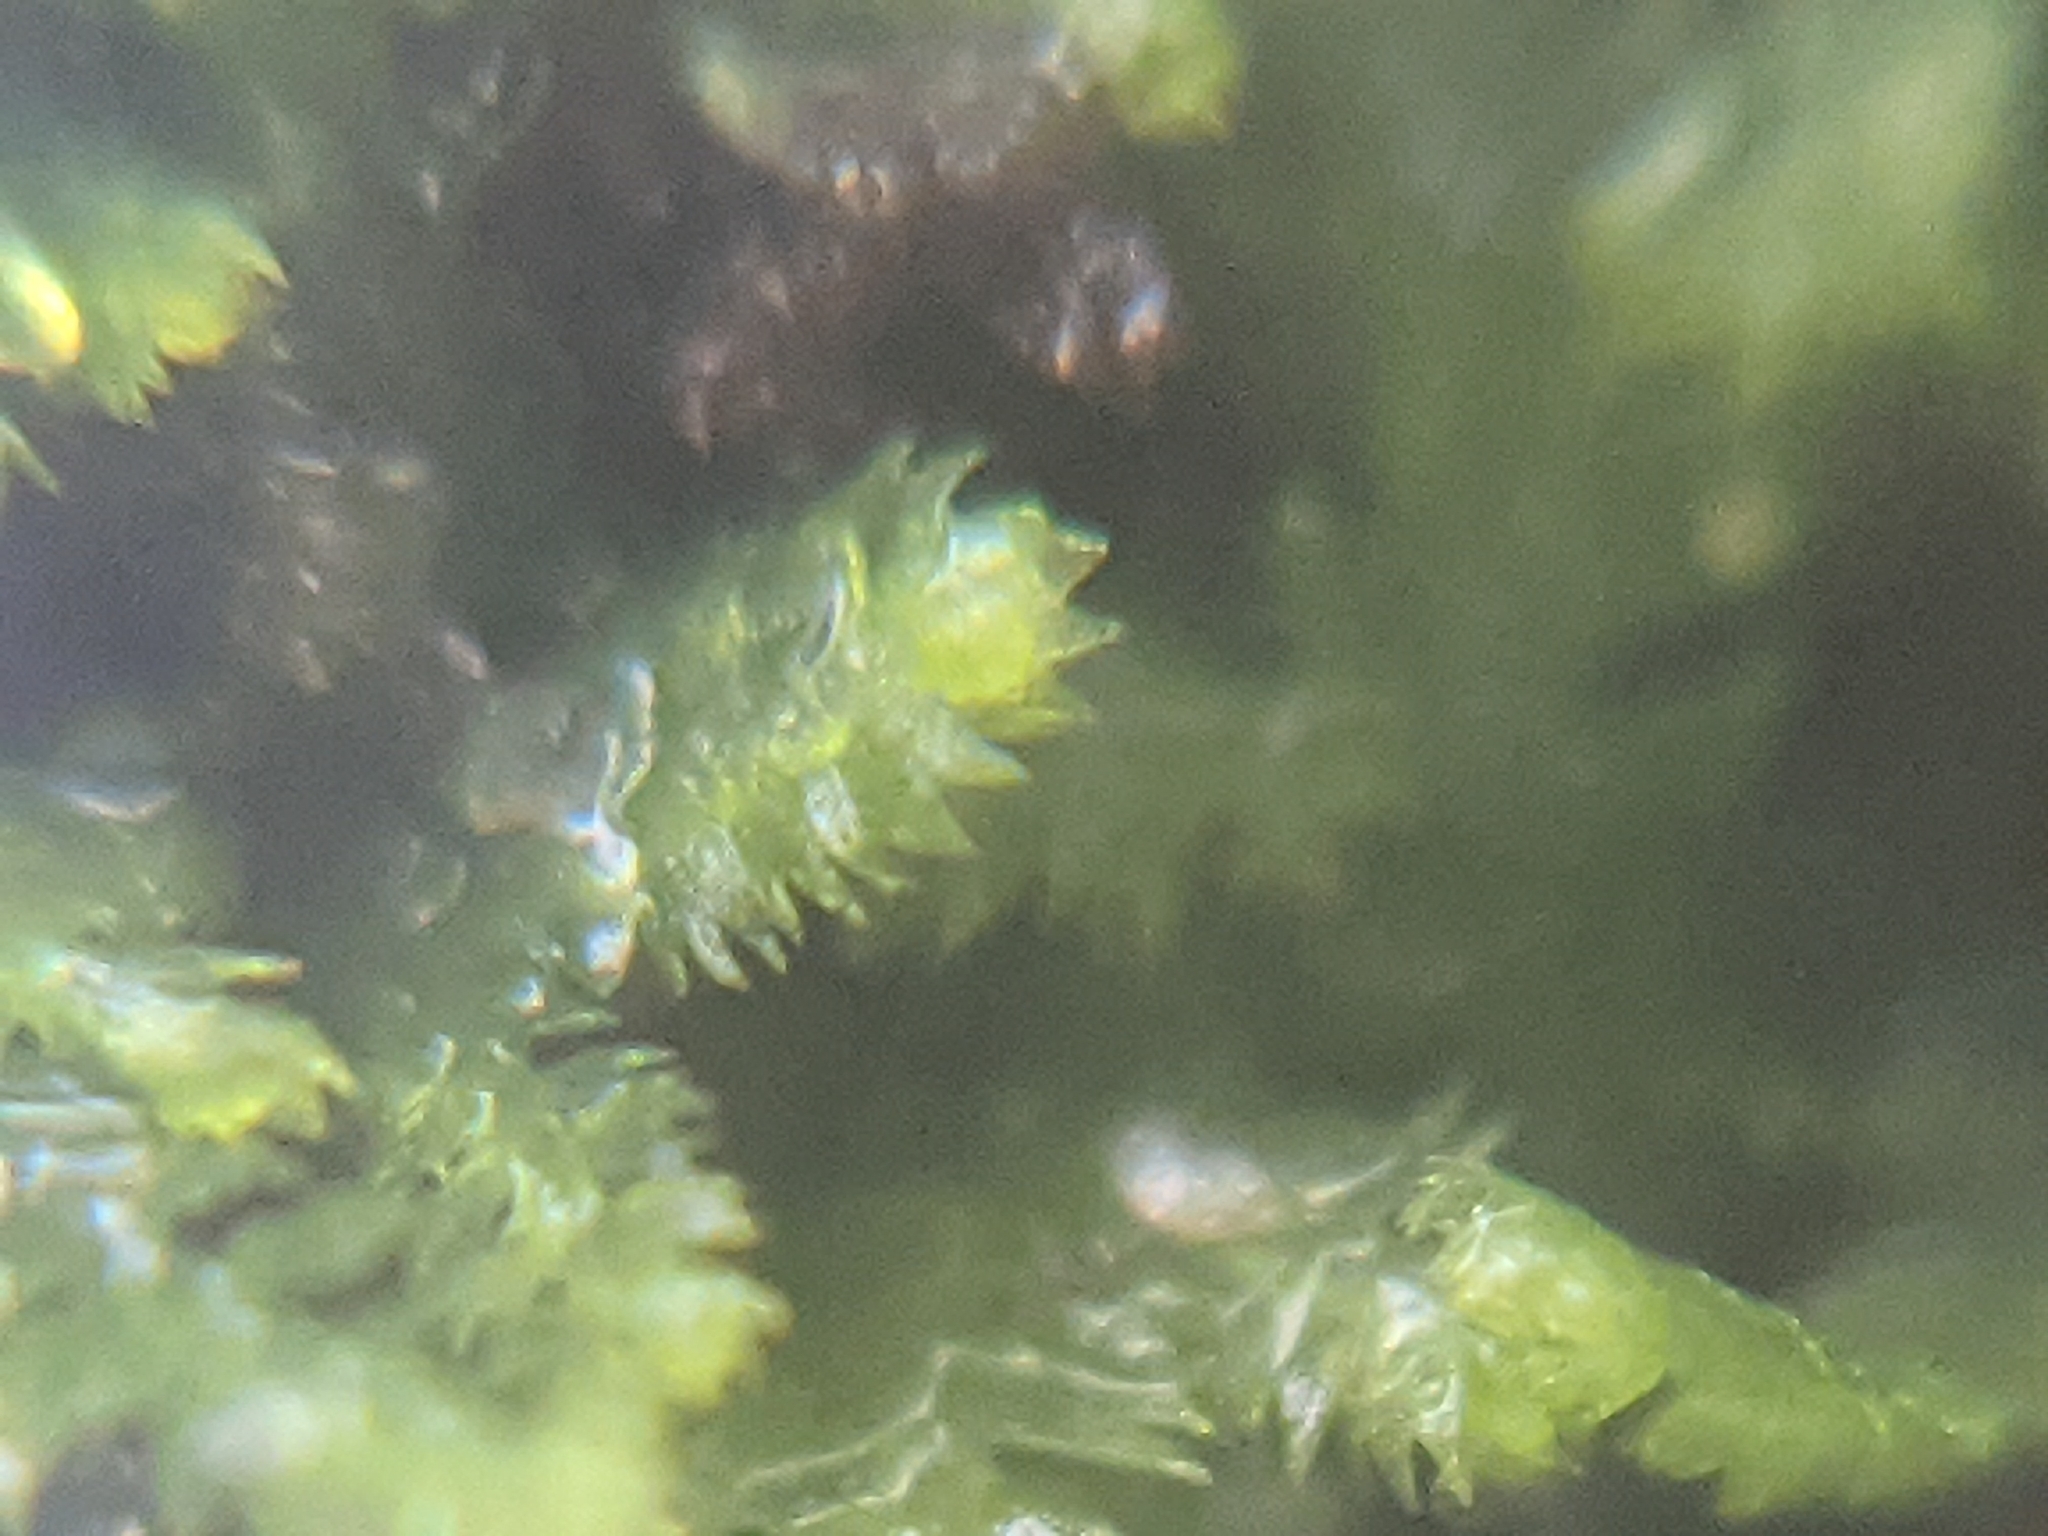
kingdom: Plantae
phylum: Marchantiophyta
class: Jungermanniopsida
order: Jungermanniales
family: Lepidoziaceae
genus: Lepidozia
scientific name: Lepidozia reptans
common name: Creeping fingerwort
